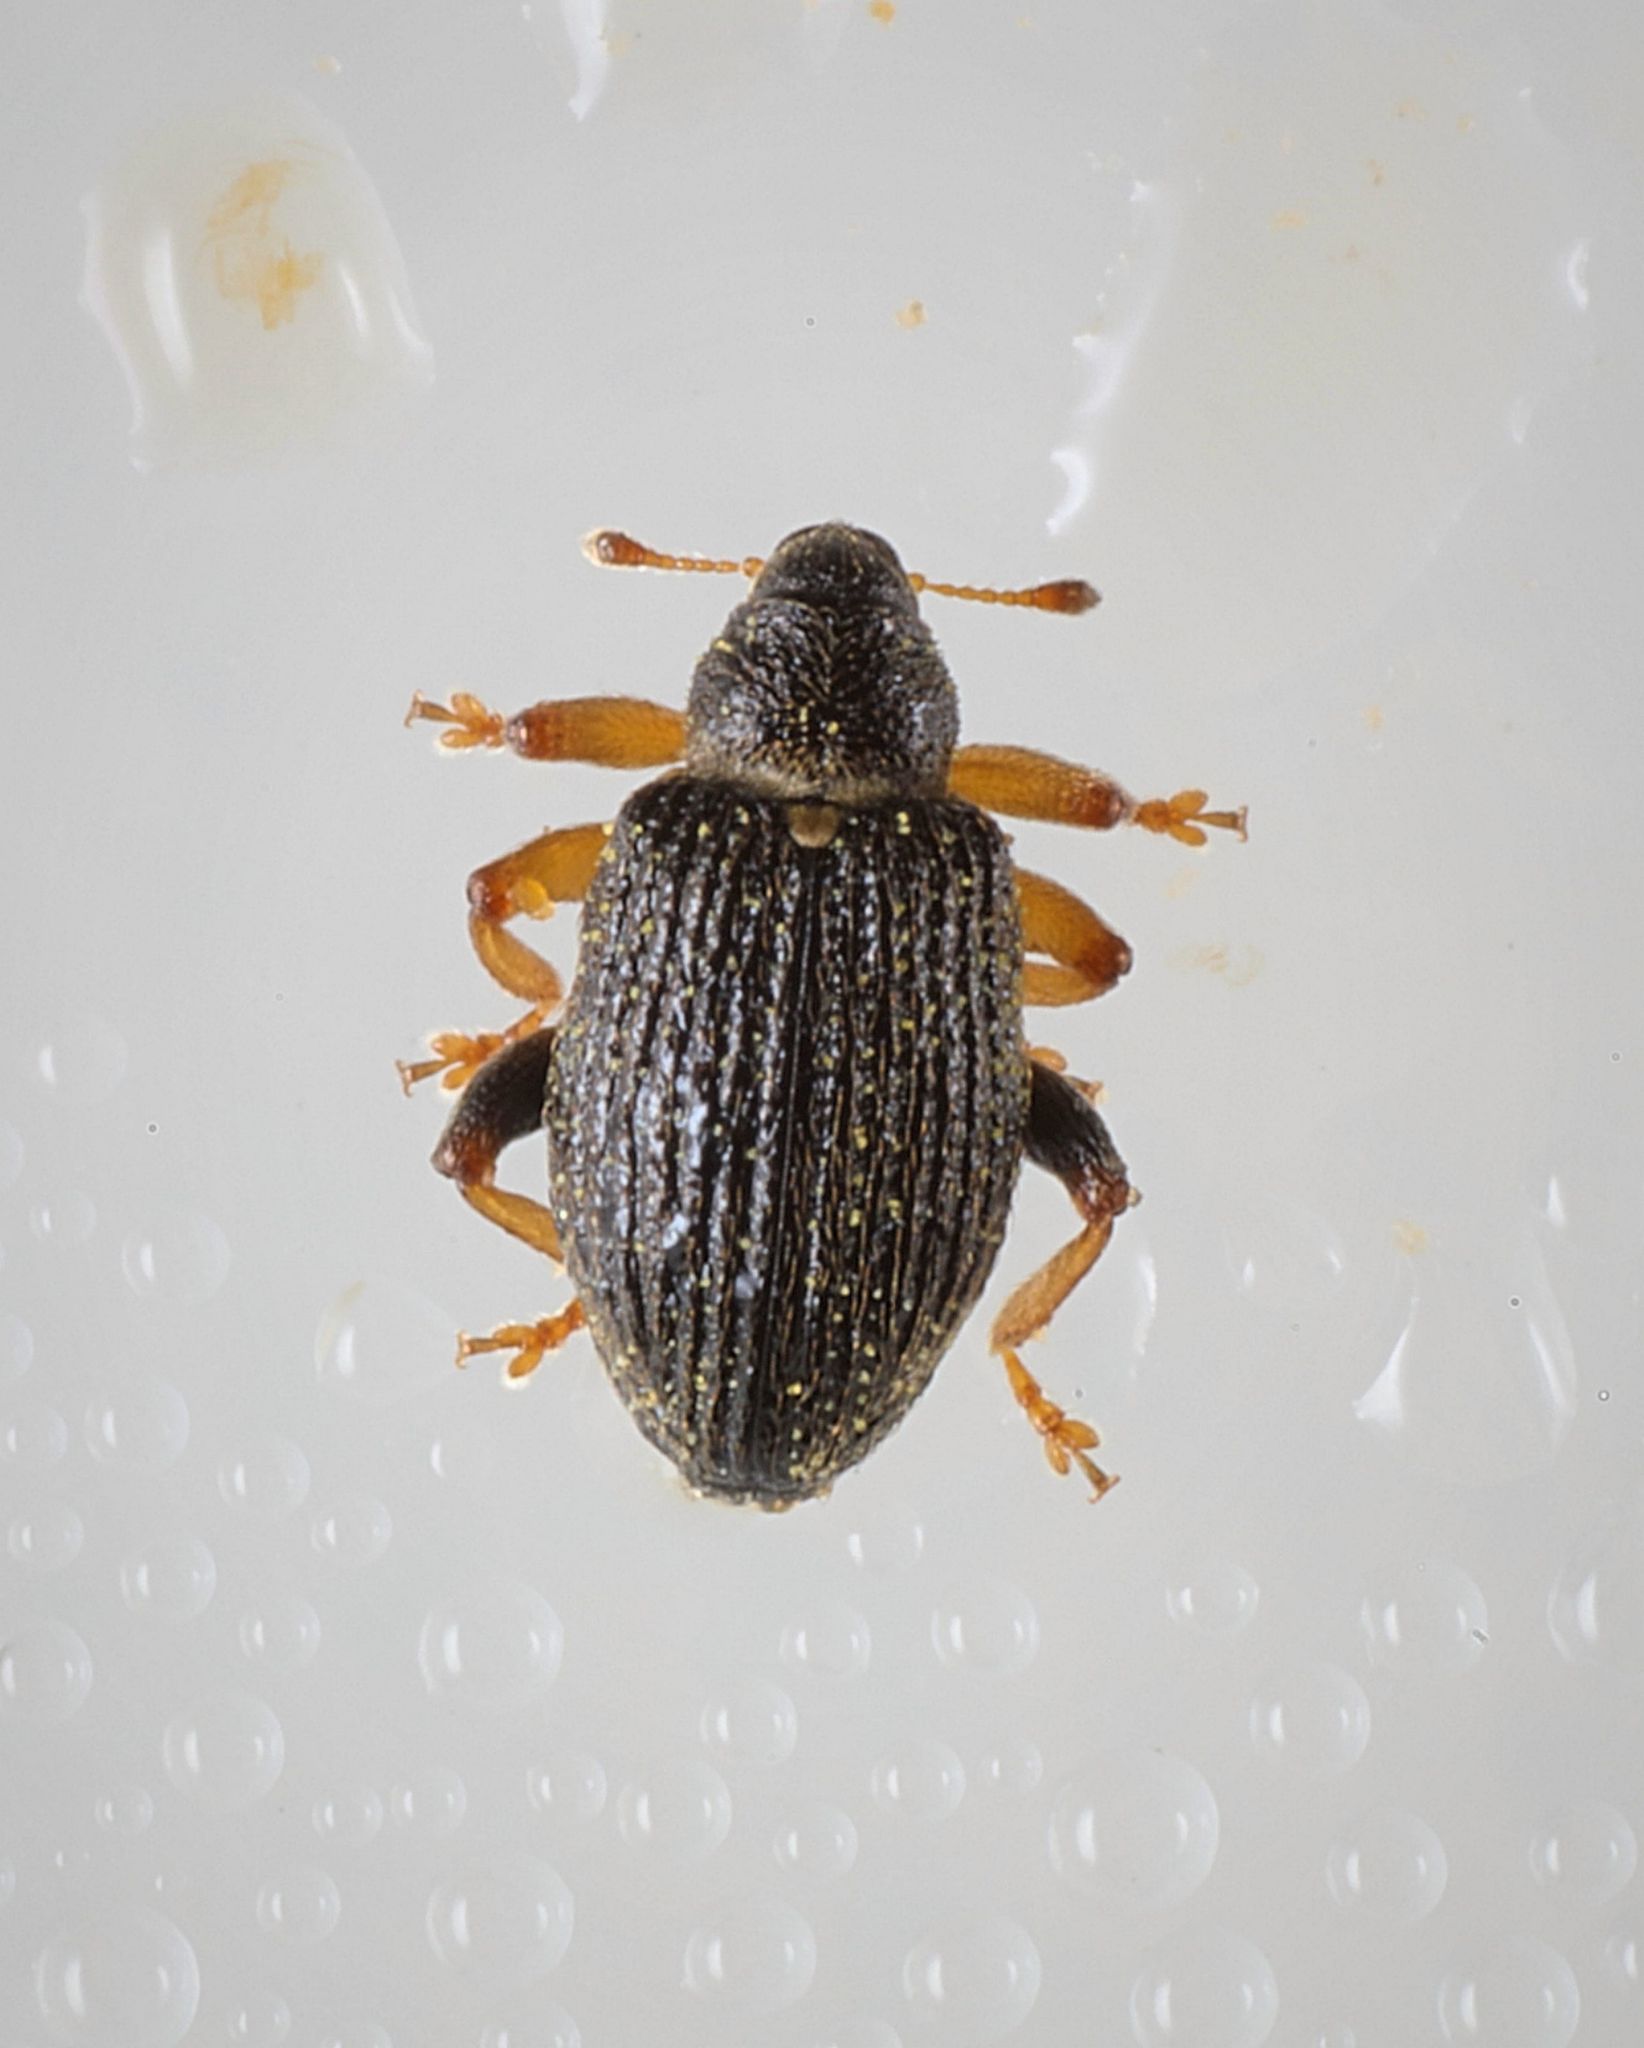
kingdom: Animalia
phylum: Arthropoda
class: Insecta
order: Coleoptera
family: Curculionidae
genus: Isochnus
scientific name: Isochnus sequensi
